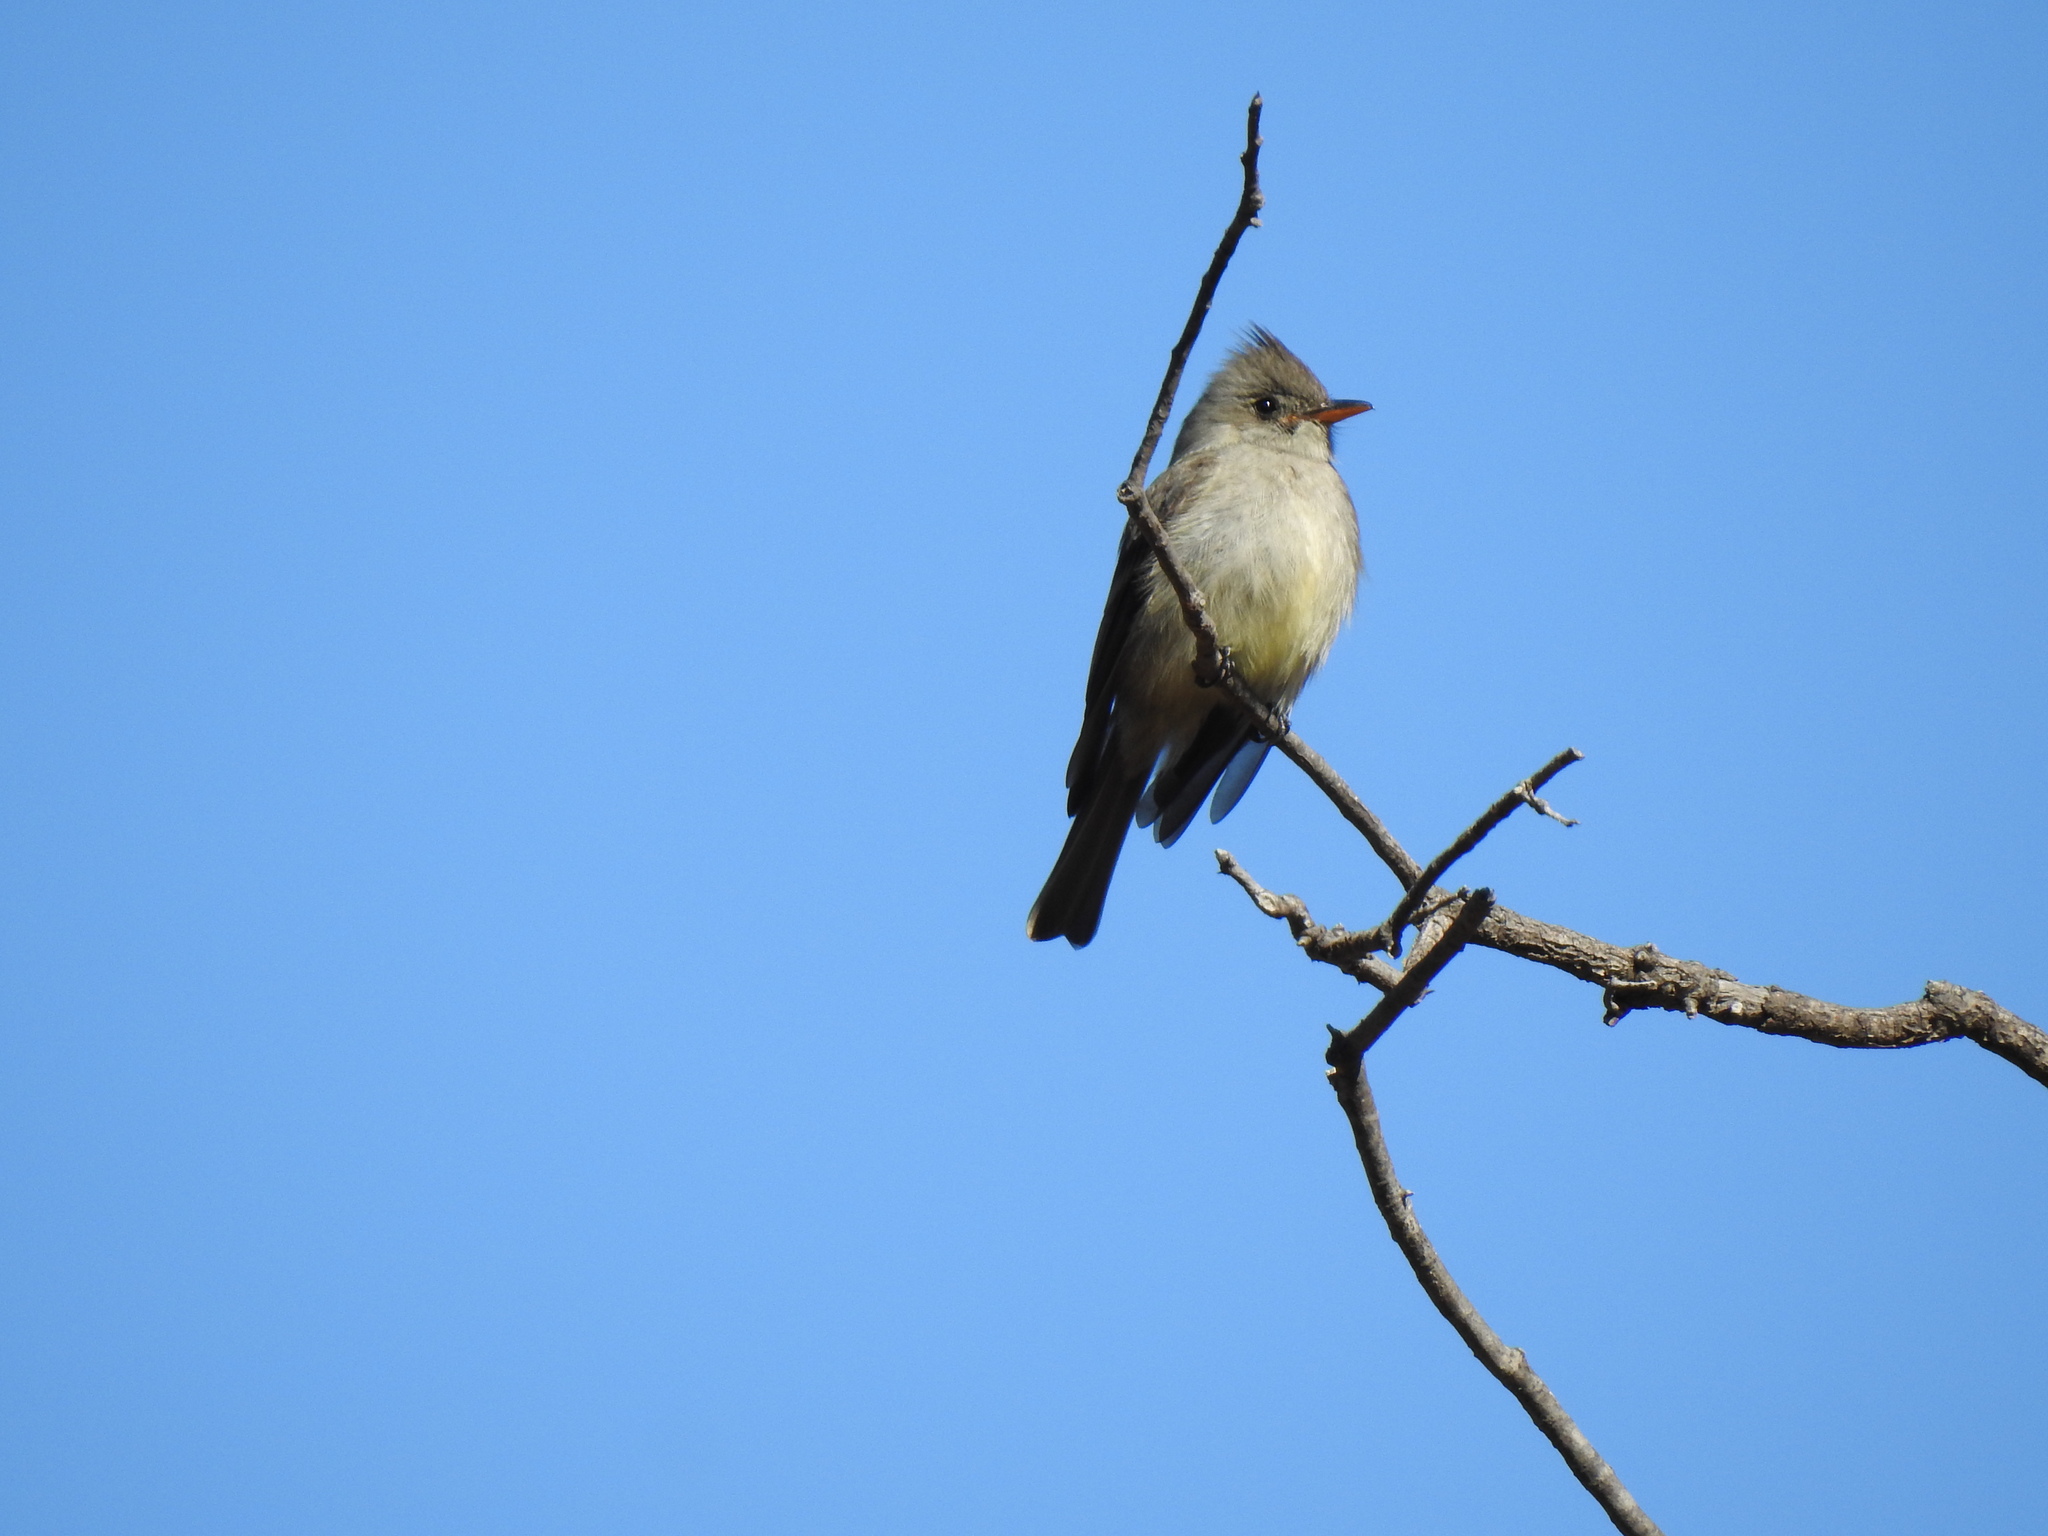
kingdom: Animalia
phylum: Chordata
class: Aves
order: Passeriformes
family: Tyrannidae
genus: Contopus
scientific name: Contopus pertinax
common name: Greater pewee
